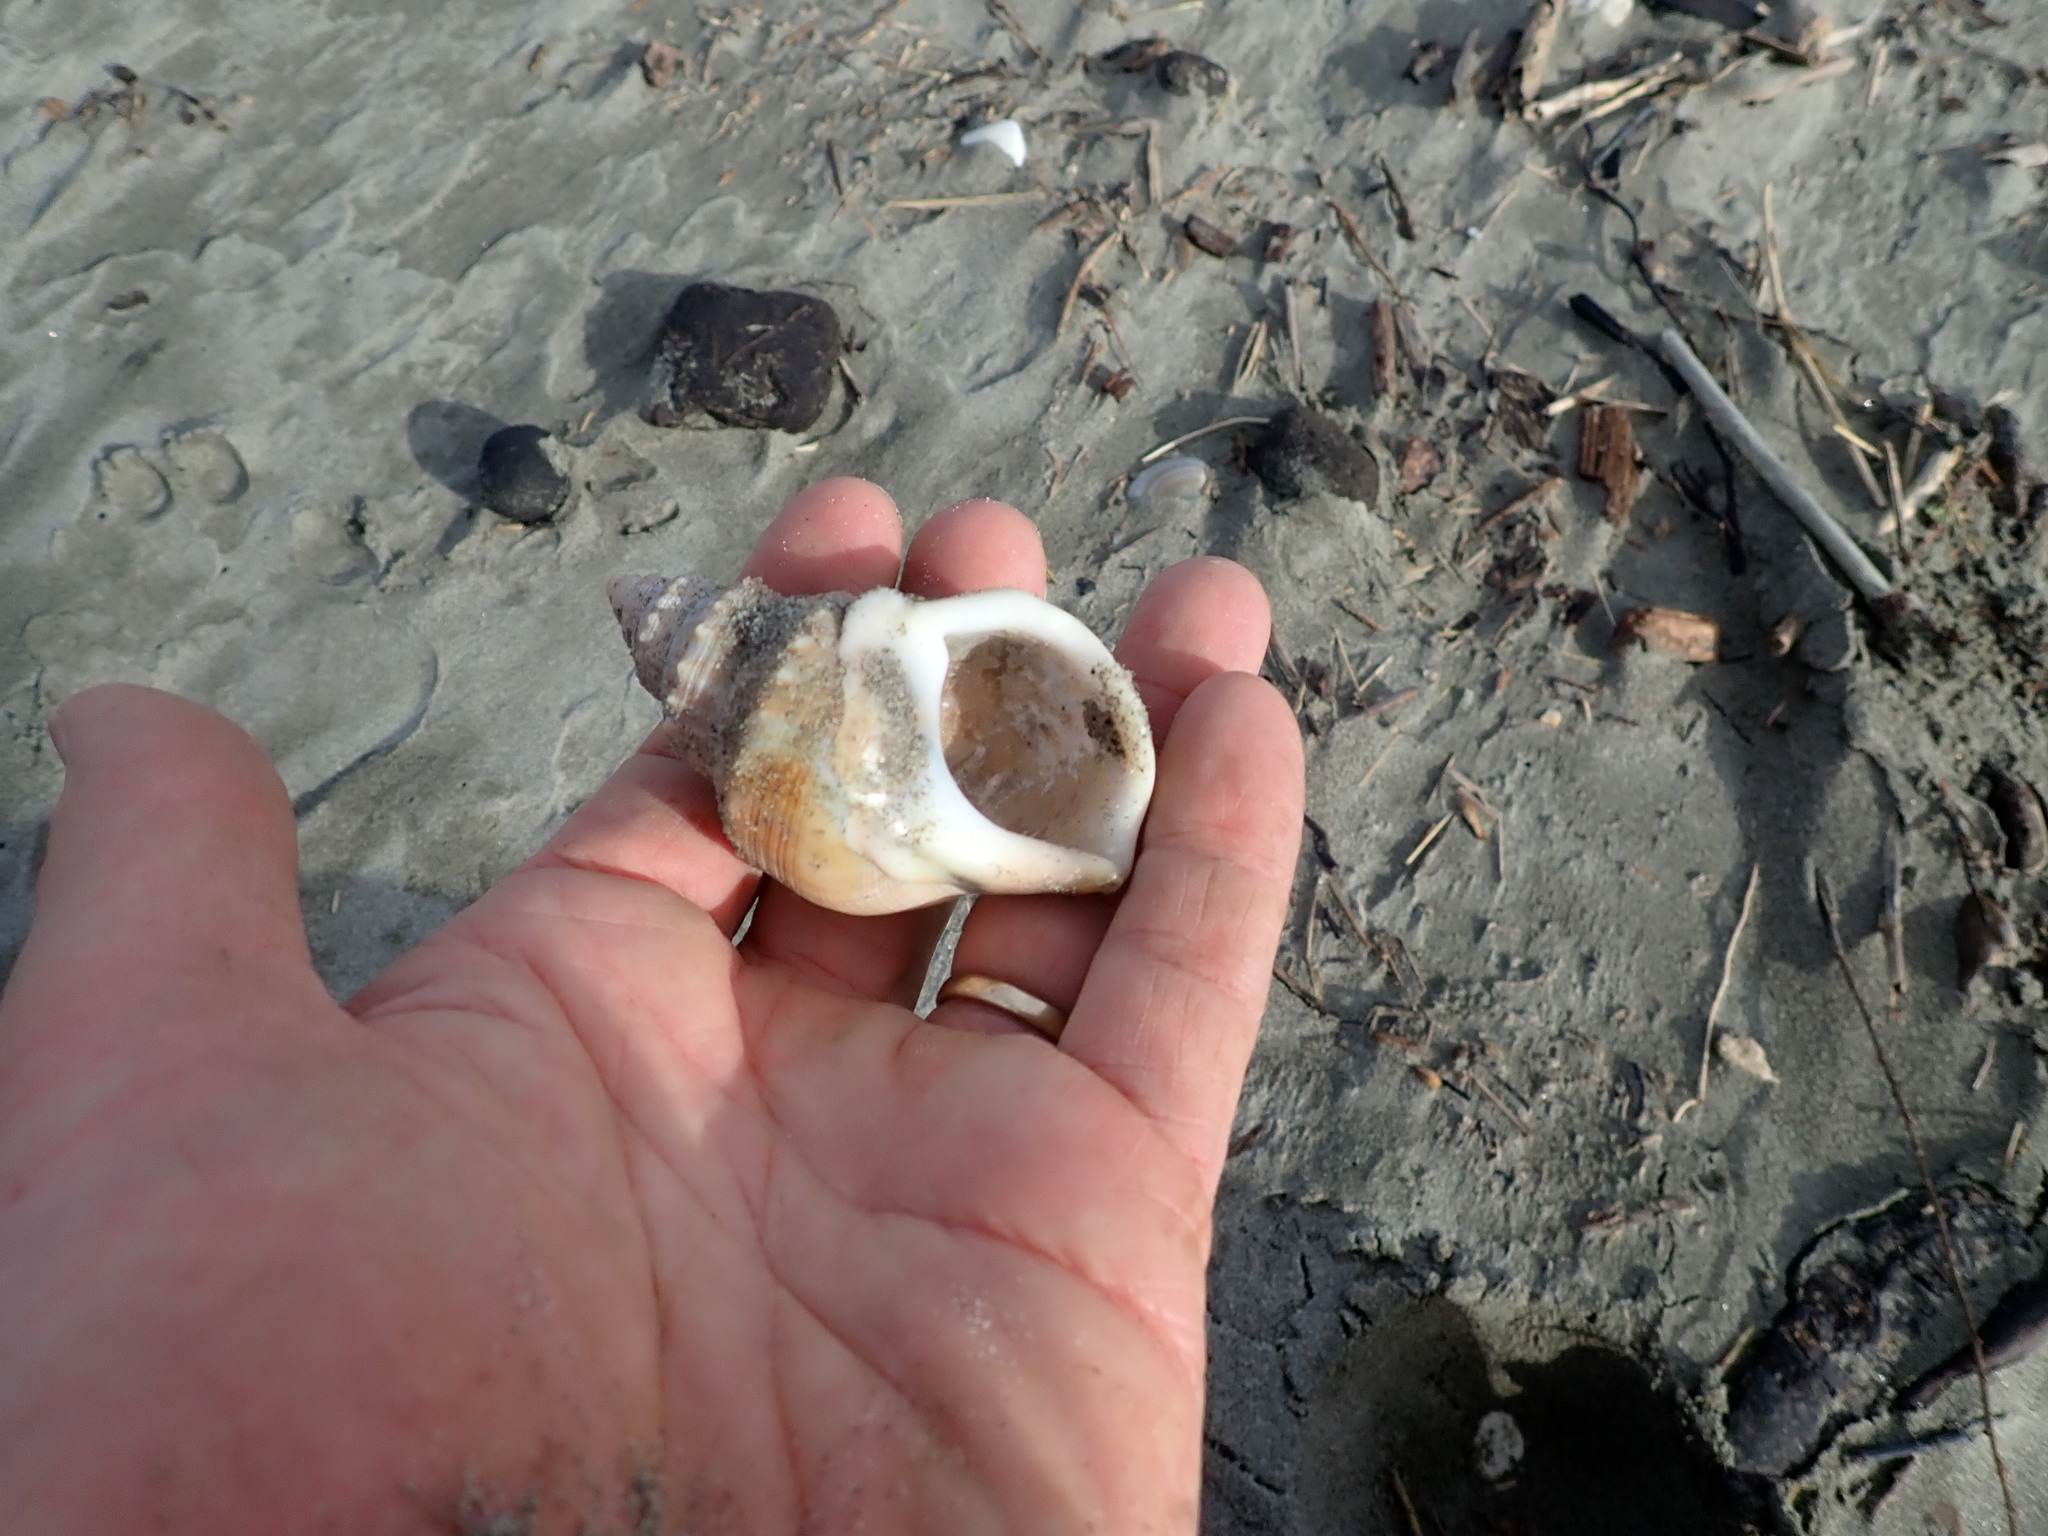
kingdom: Animalia
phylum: Mollusca
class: Gastropoda
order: Littorinimorpha
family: Struthiolariidae
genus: Struthiolaria
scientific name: Struthiolaria papulosa
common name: Large ostrich foot
